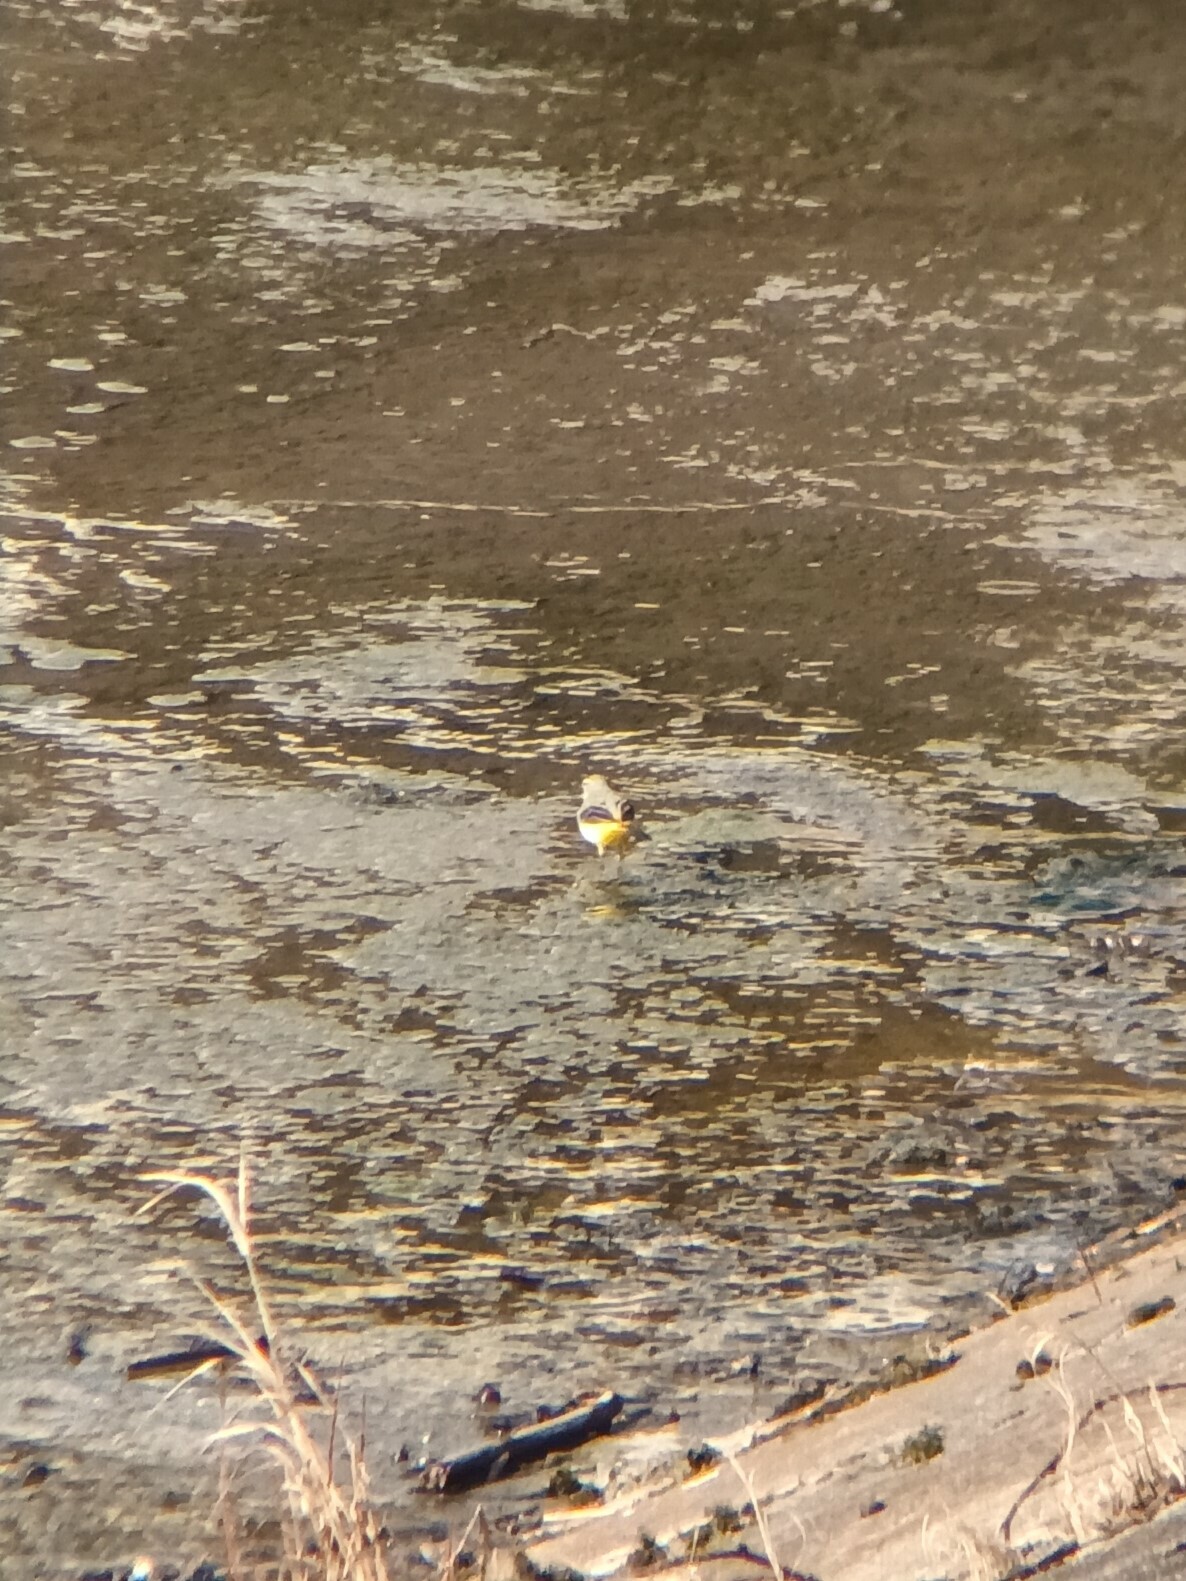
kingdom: Animalia
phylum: Chordata
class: Aves
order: Passeriformes
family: Motacillidae
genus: Motacilla
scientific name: Motacilla cinerea
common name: Grey wagtail
